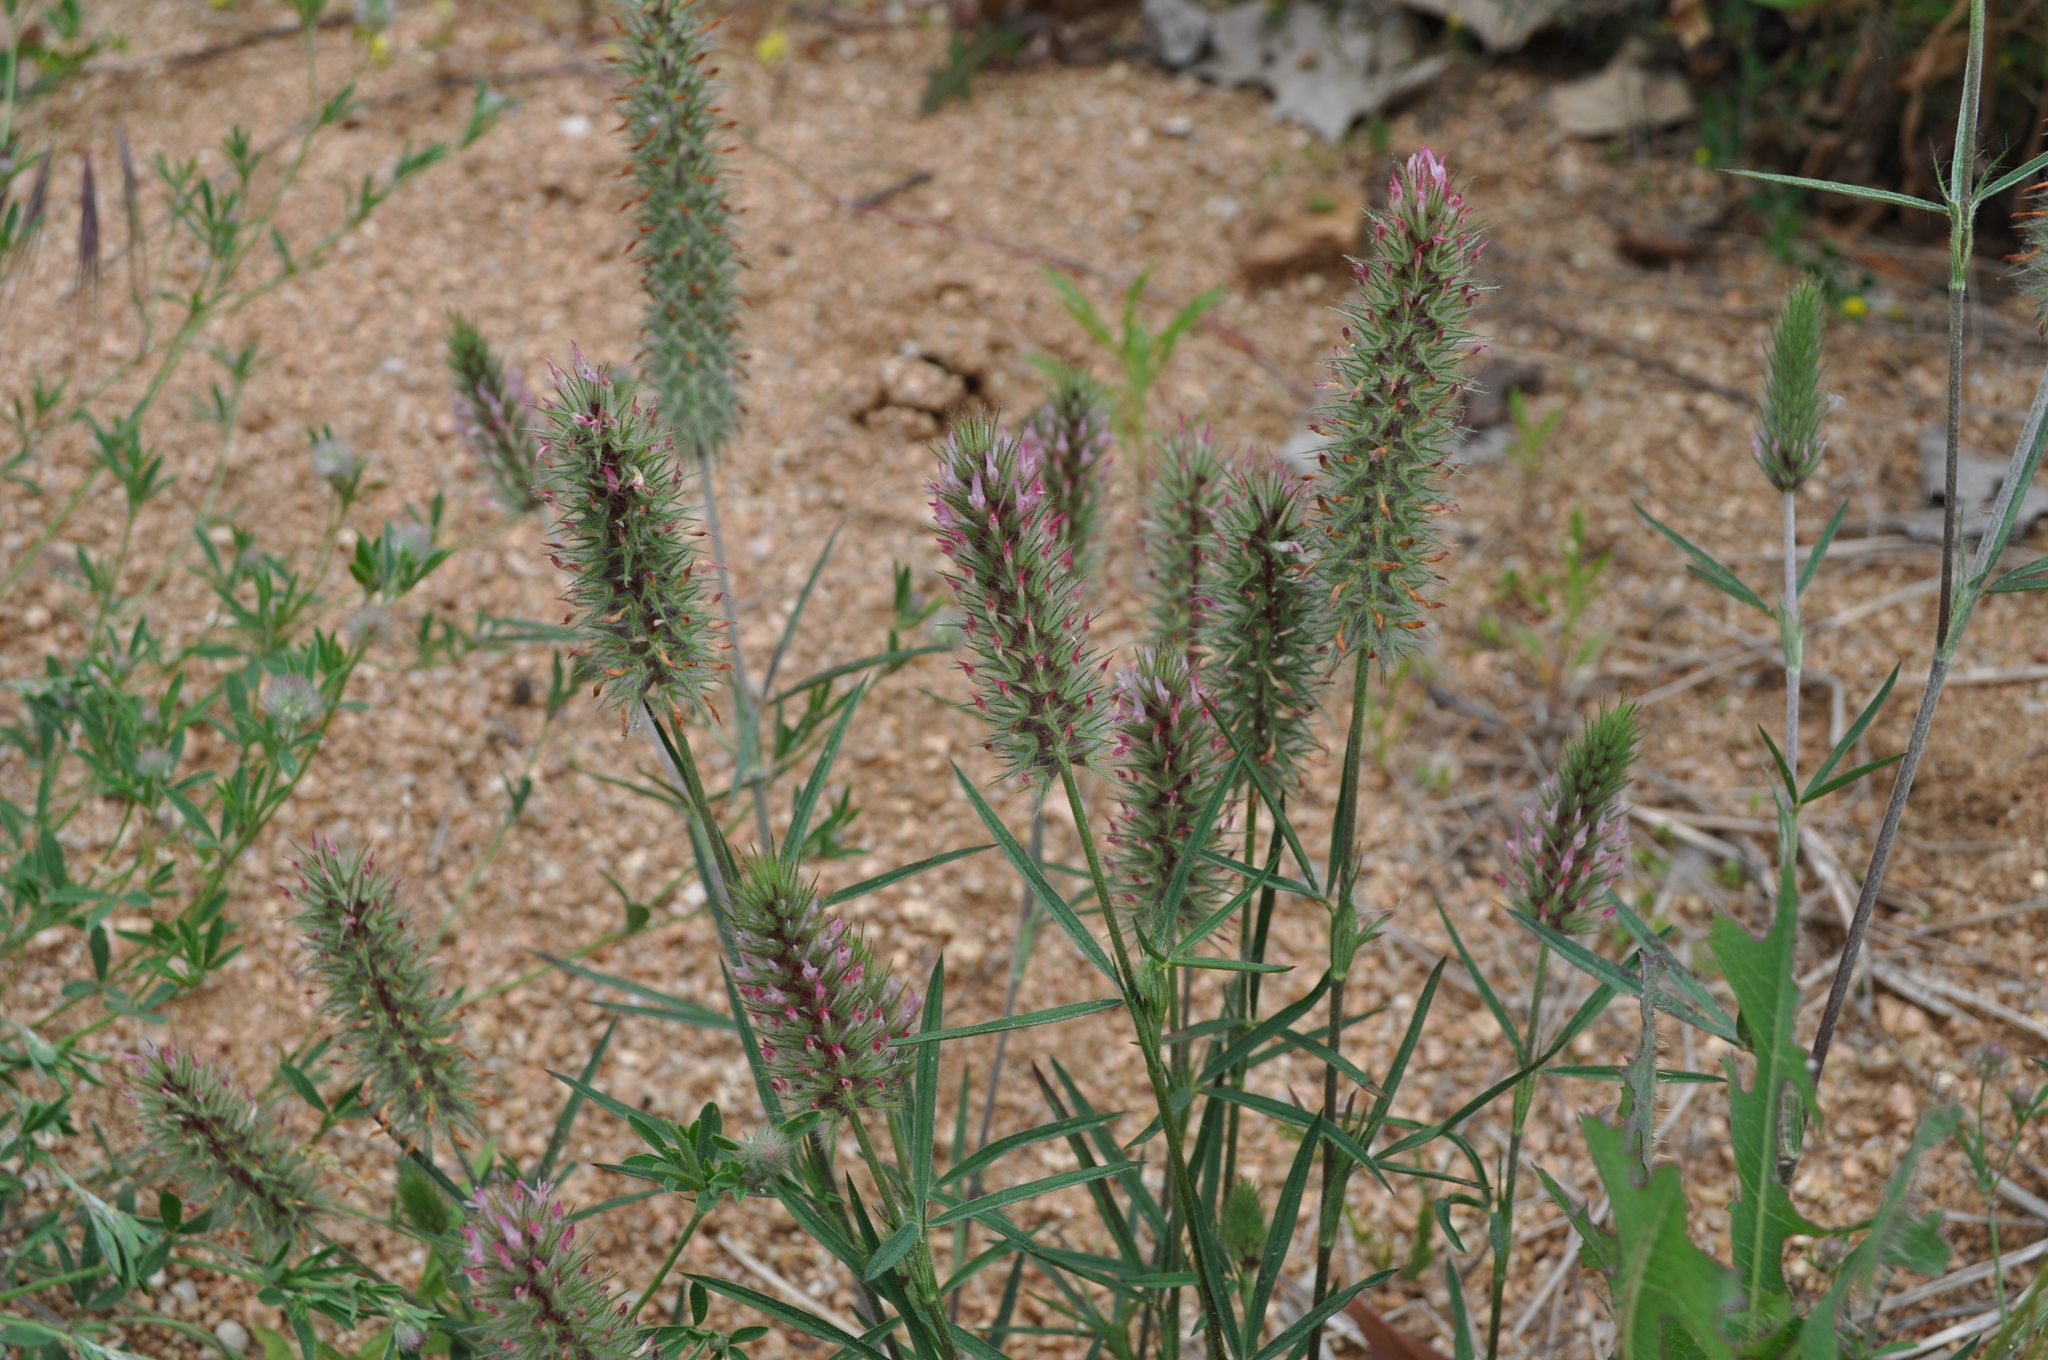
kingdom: Plantae
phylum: Tracheophyta
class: Magnoliopsida
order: Fabales
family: Fabaceae
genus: Trifolium
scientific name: Trifolium angustifolium
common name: Narrow clover
